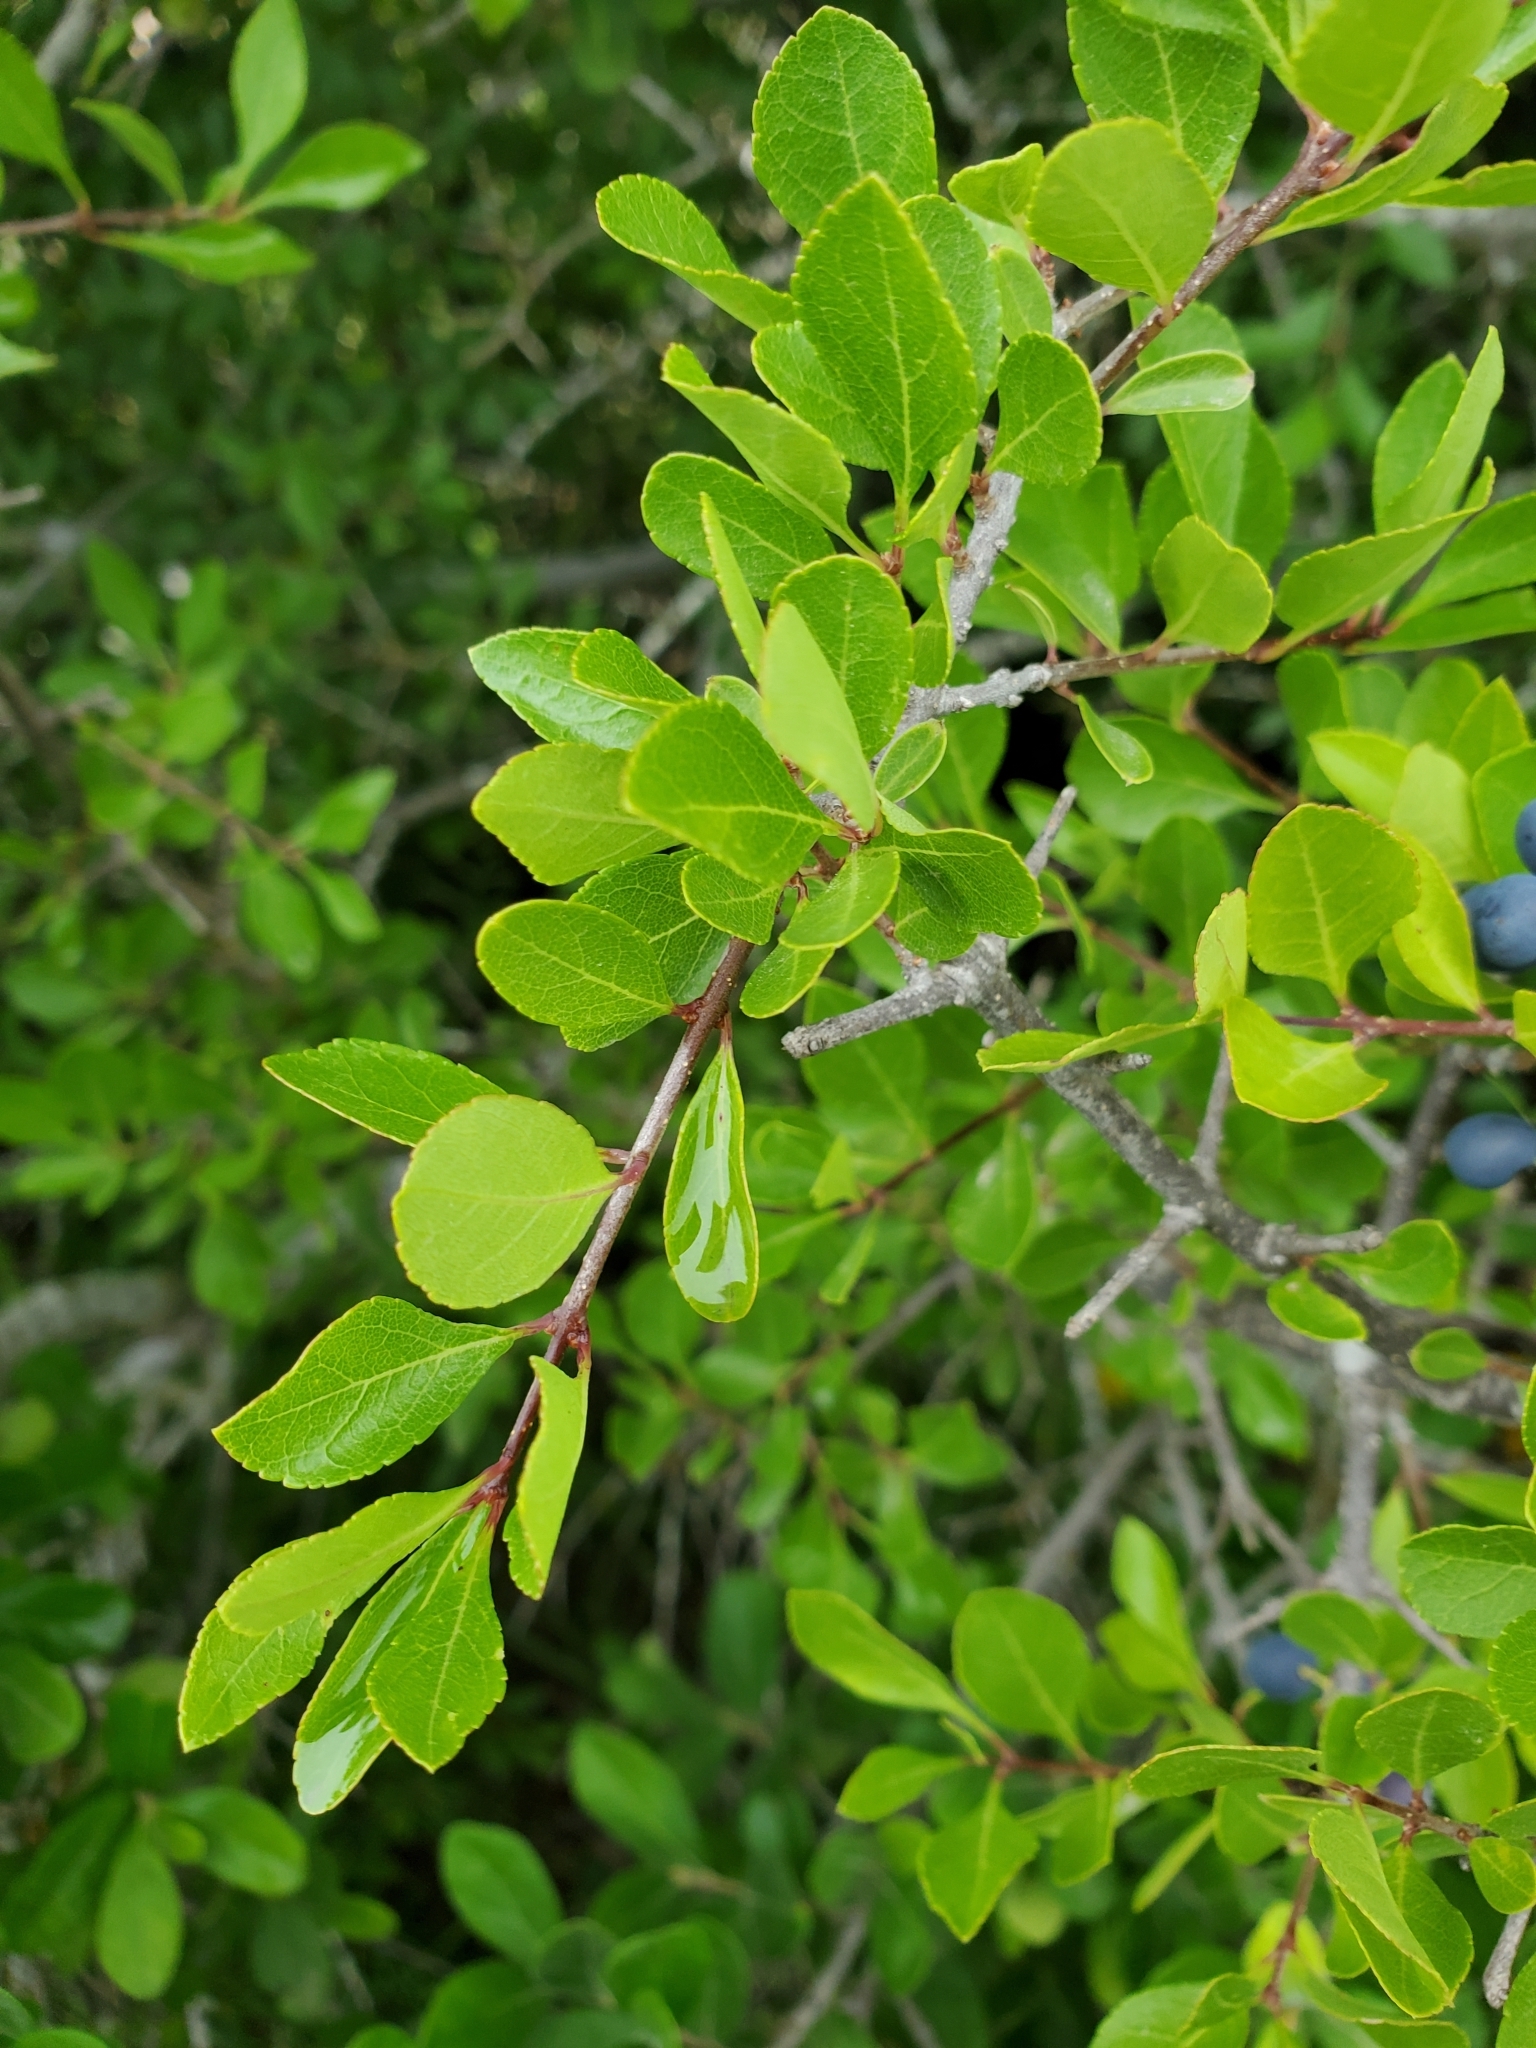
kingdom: Plantae
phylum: Tracheophyta
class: Magnoliopsida
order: Lamiales
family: Oleaceae
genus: Forestiera
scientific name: Forestiera pubescens
